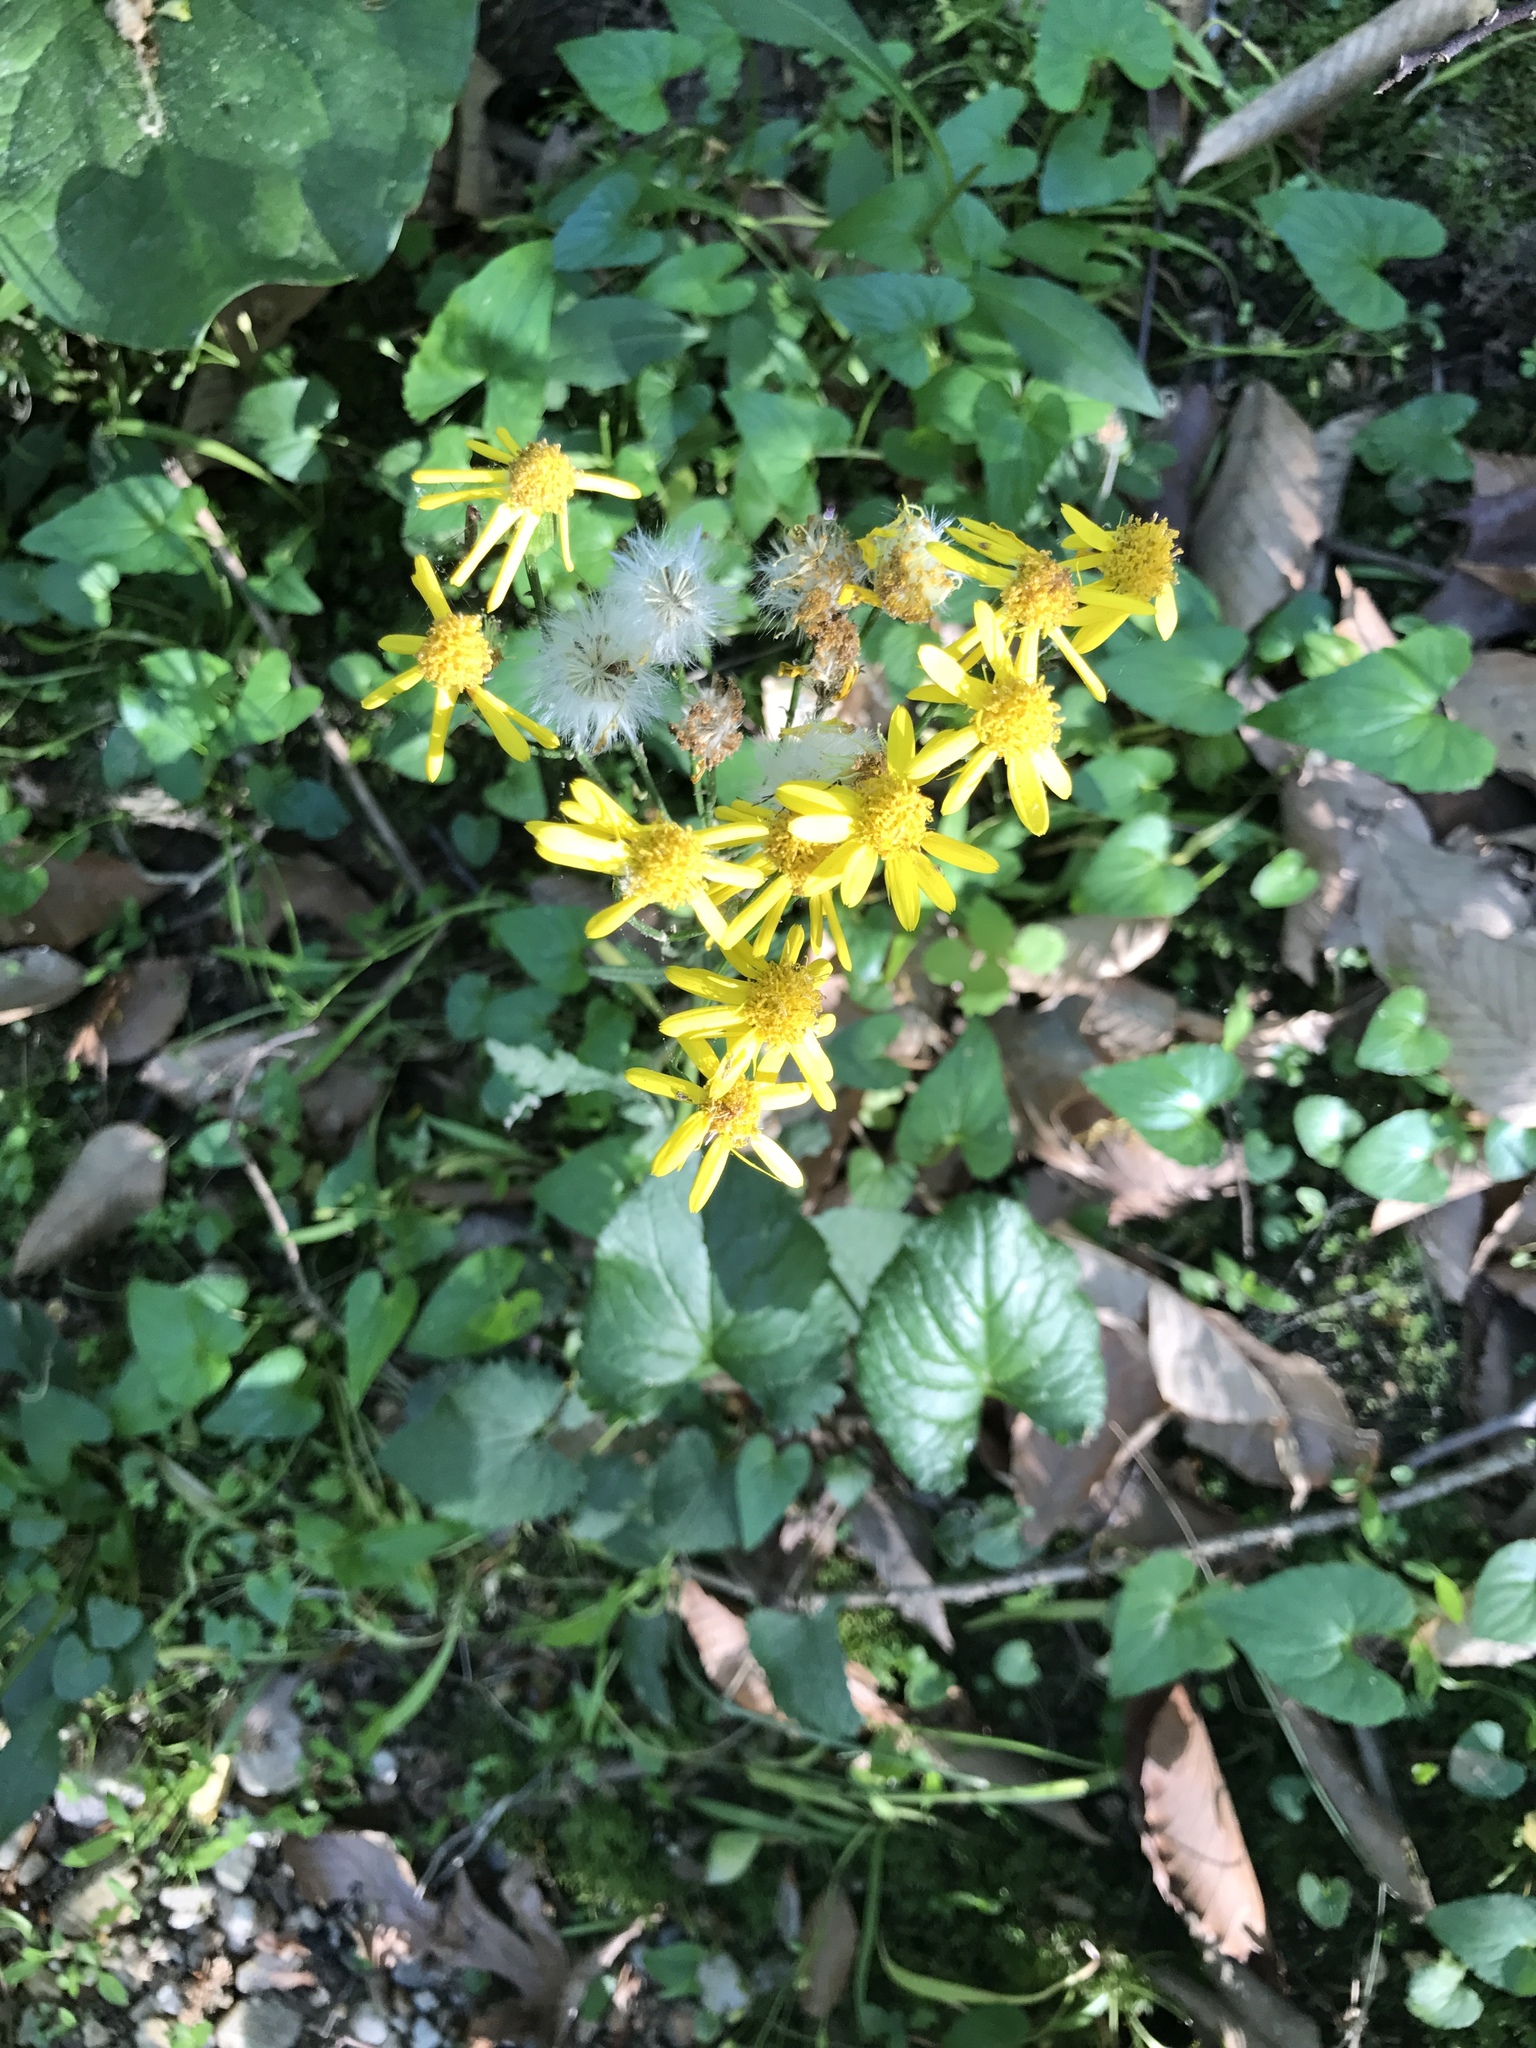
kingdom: Plantae
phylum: Tracheophyta
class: Magnoliopsida
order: Asterales
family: Asteraceae
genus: Packera
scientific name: Packera aurea
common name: Golden groundsel
